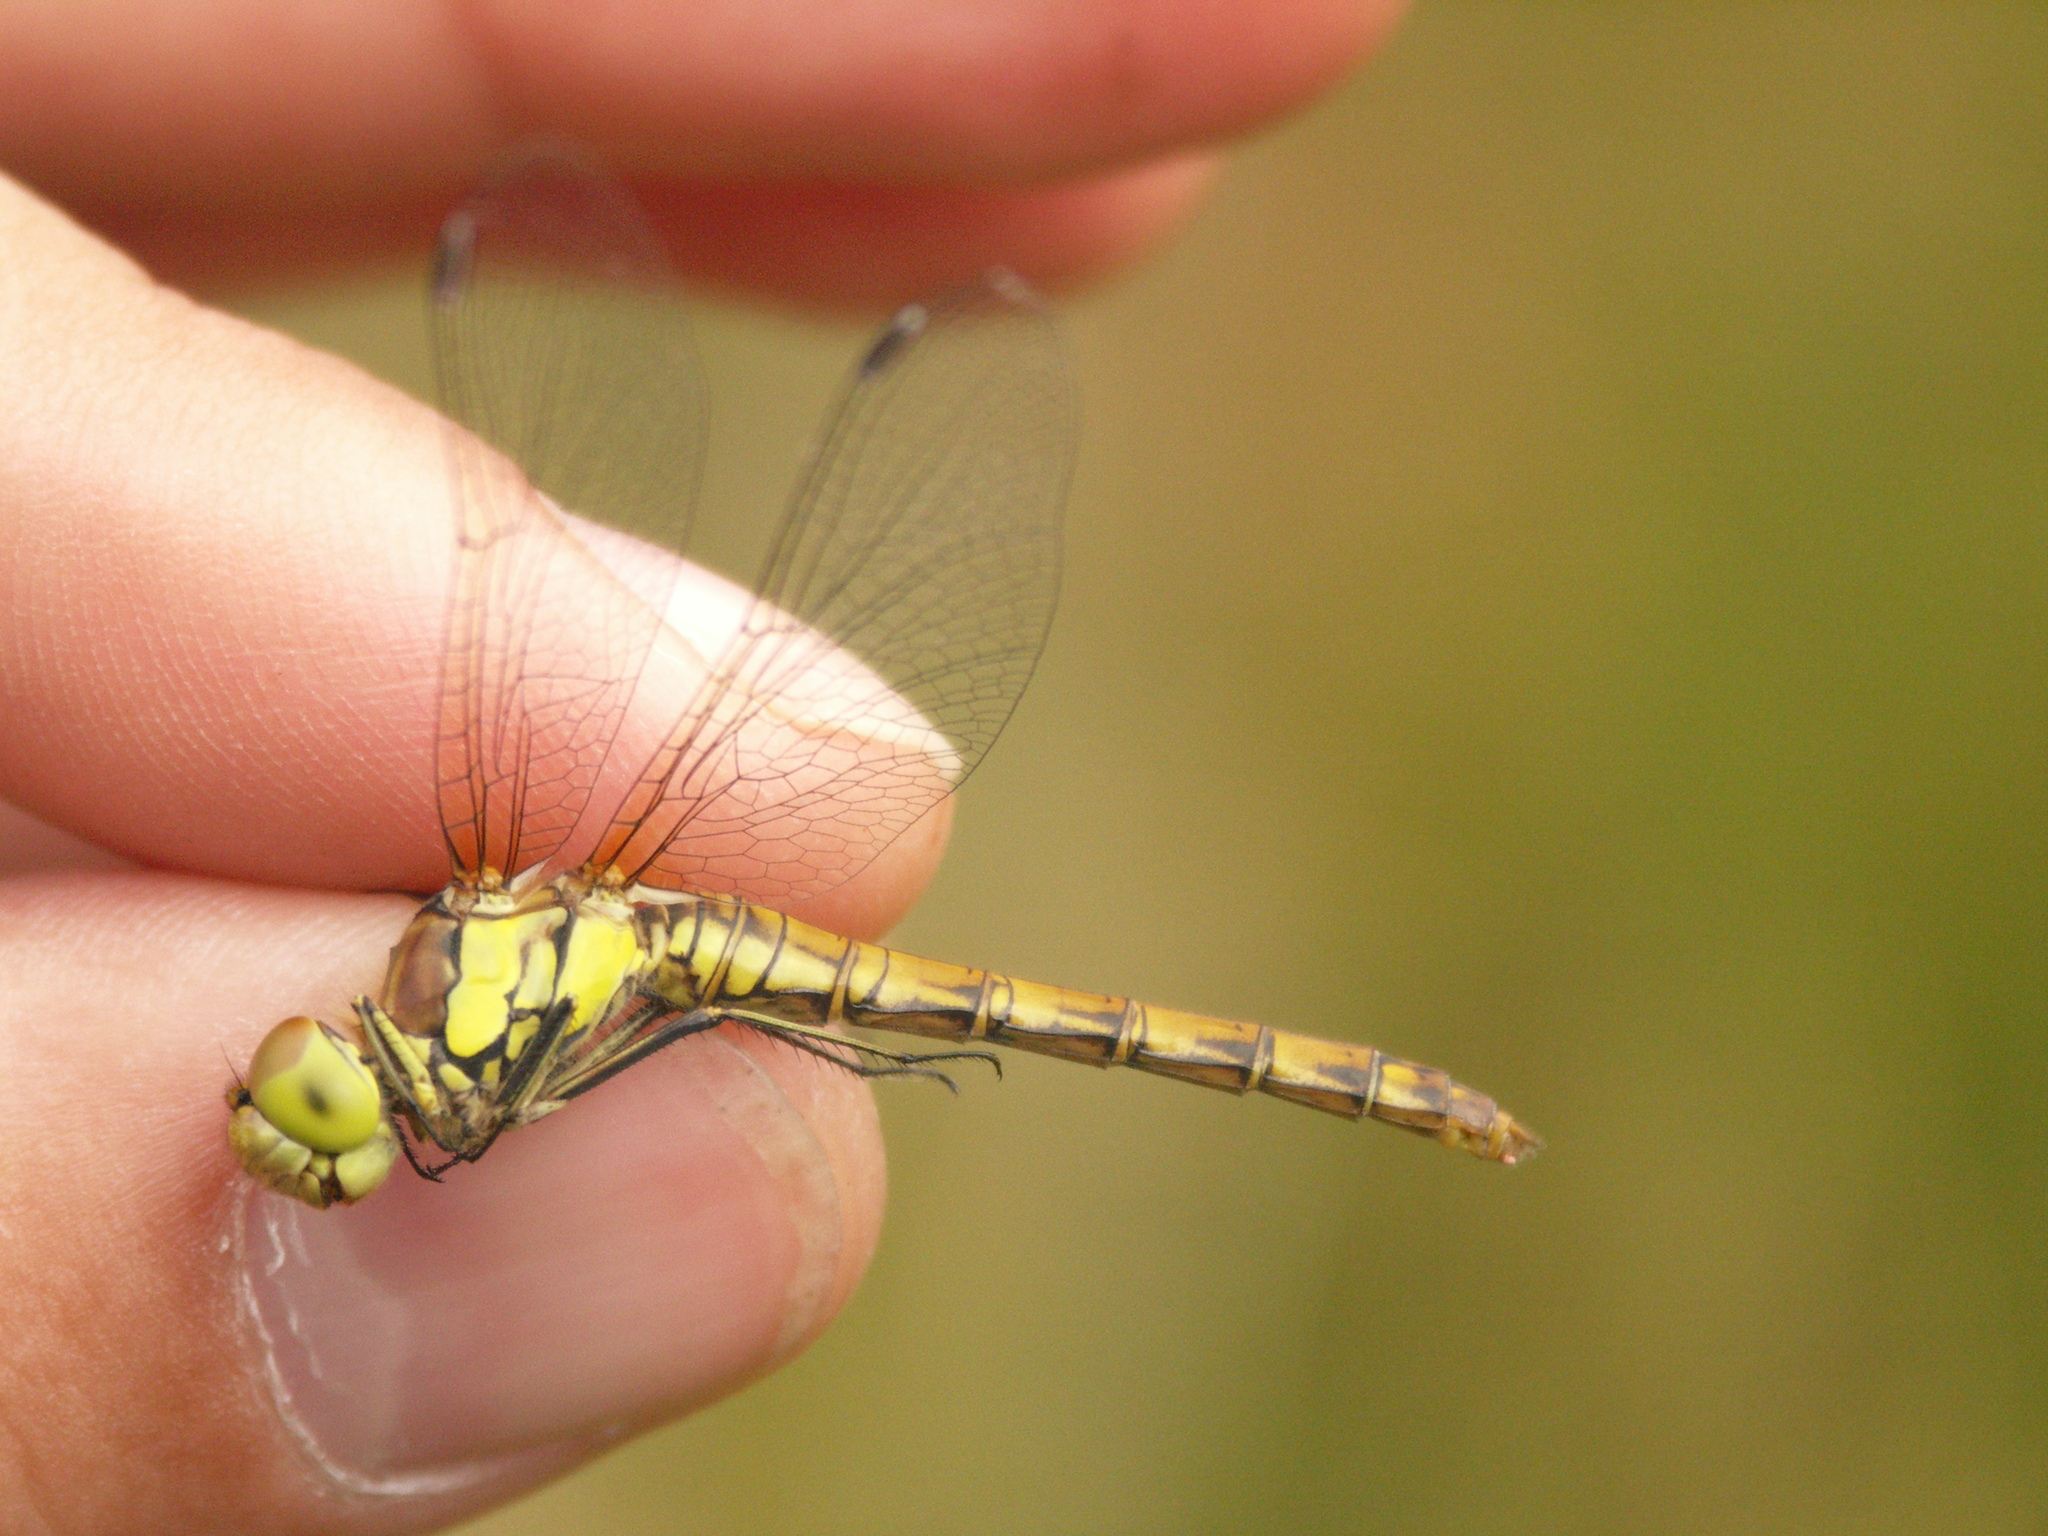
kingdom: Animalia
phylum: Arthropoda
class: Insecta
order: Odonata
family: Libellulidae
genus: Sympetrum
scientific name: Sympetrum striolatum
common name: Common darter
